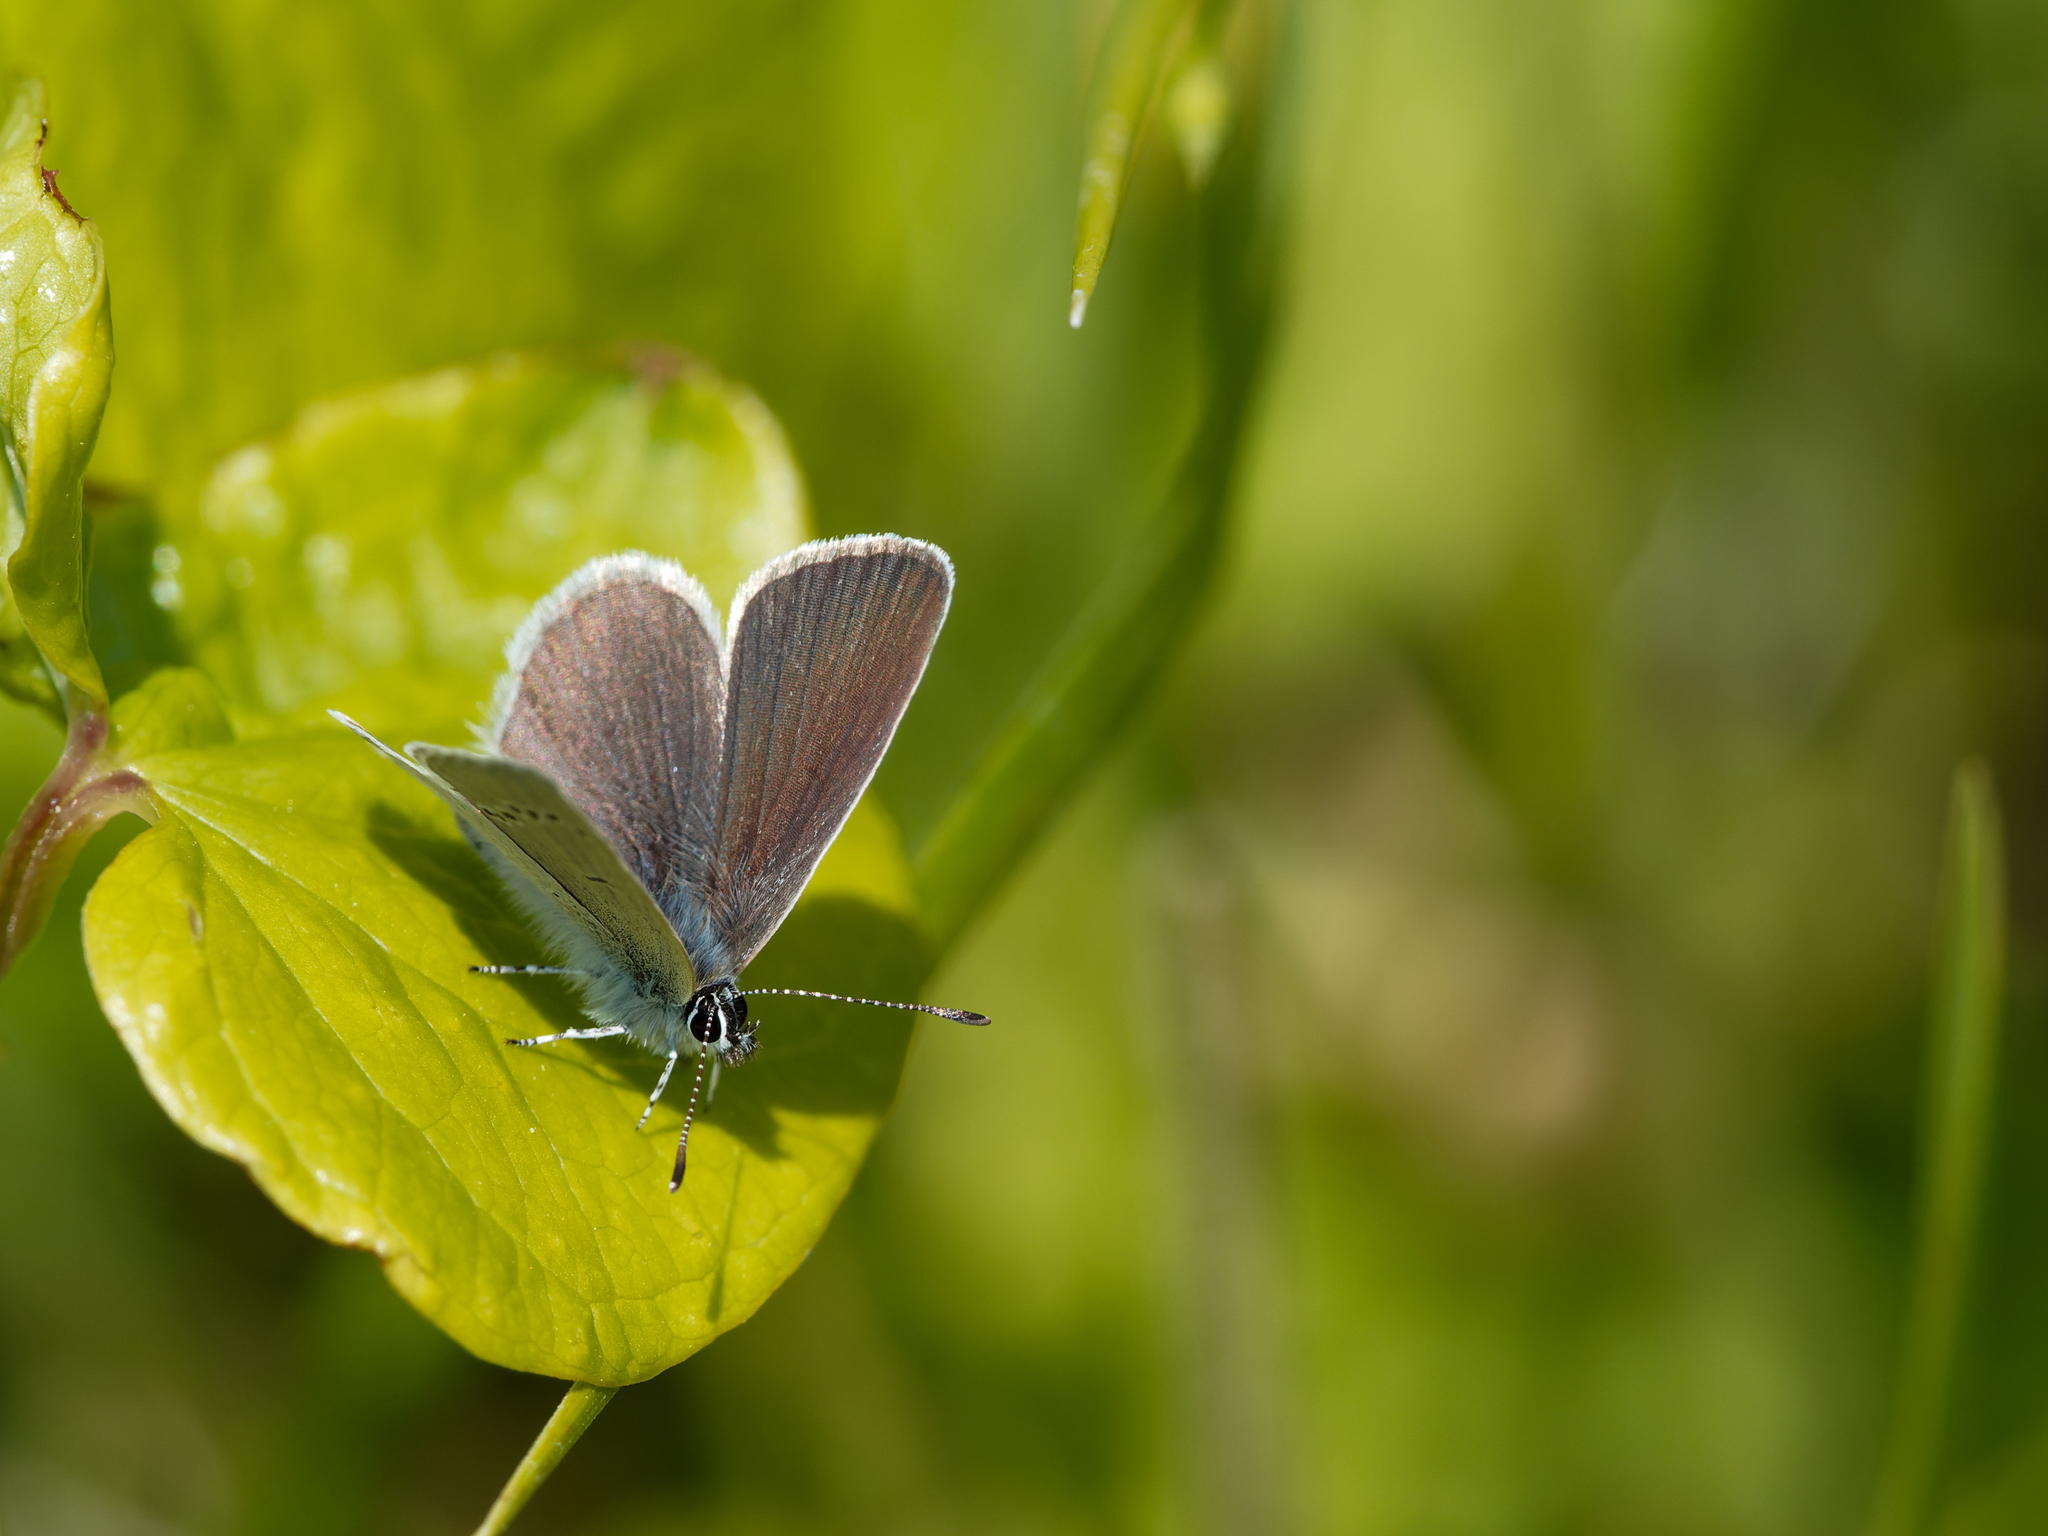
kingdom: Animalia
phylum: Arthropoda
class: Insecta
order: Lepidoptera
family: Lycaenidae
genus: Cupido
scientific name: Cupido minimus
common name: Small blue
